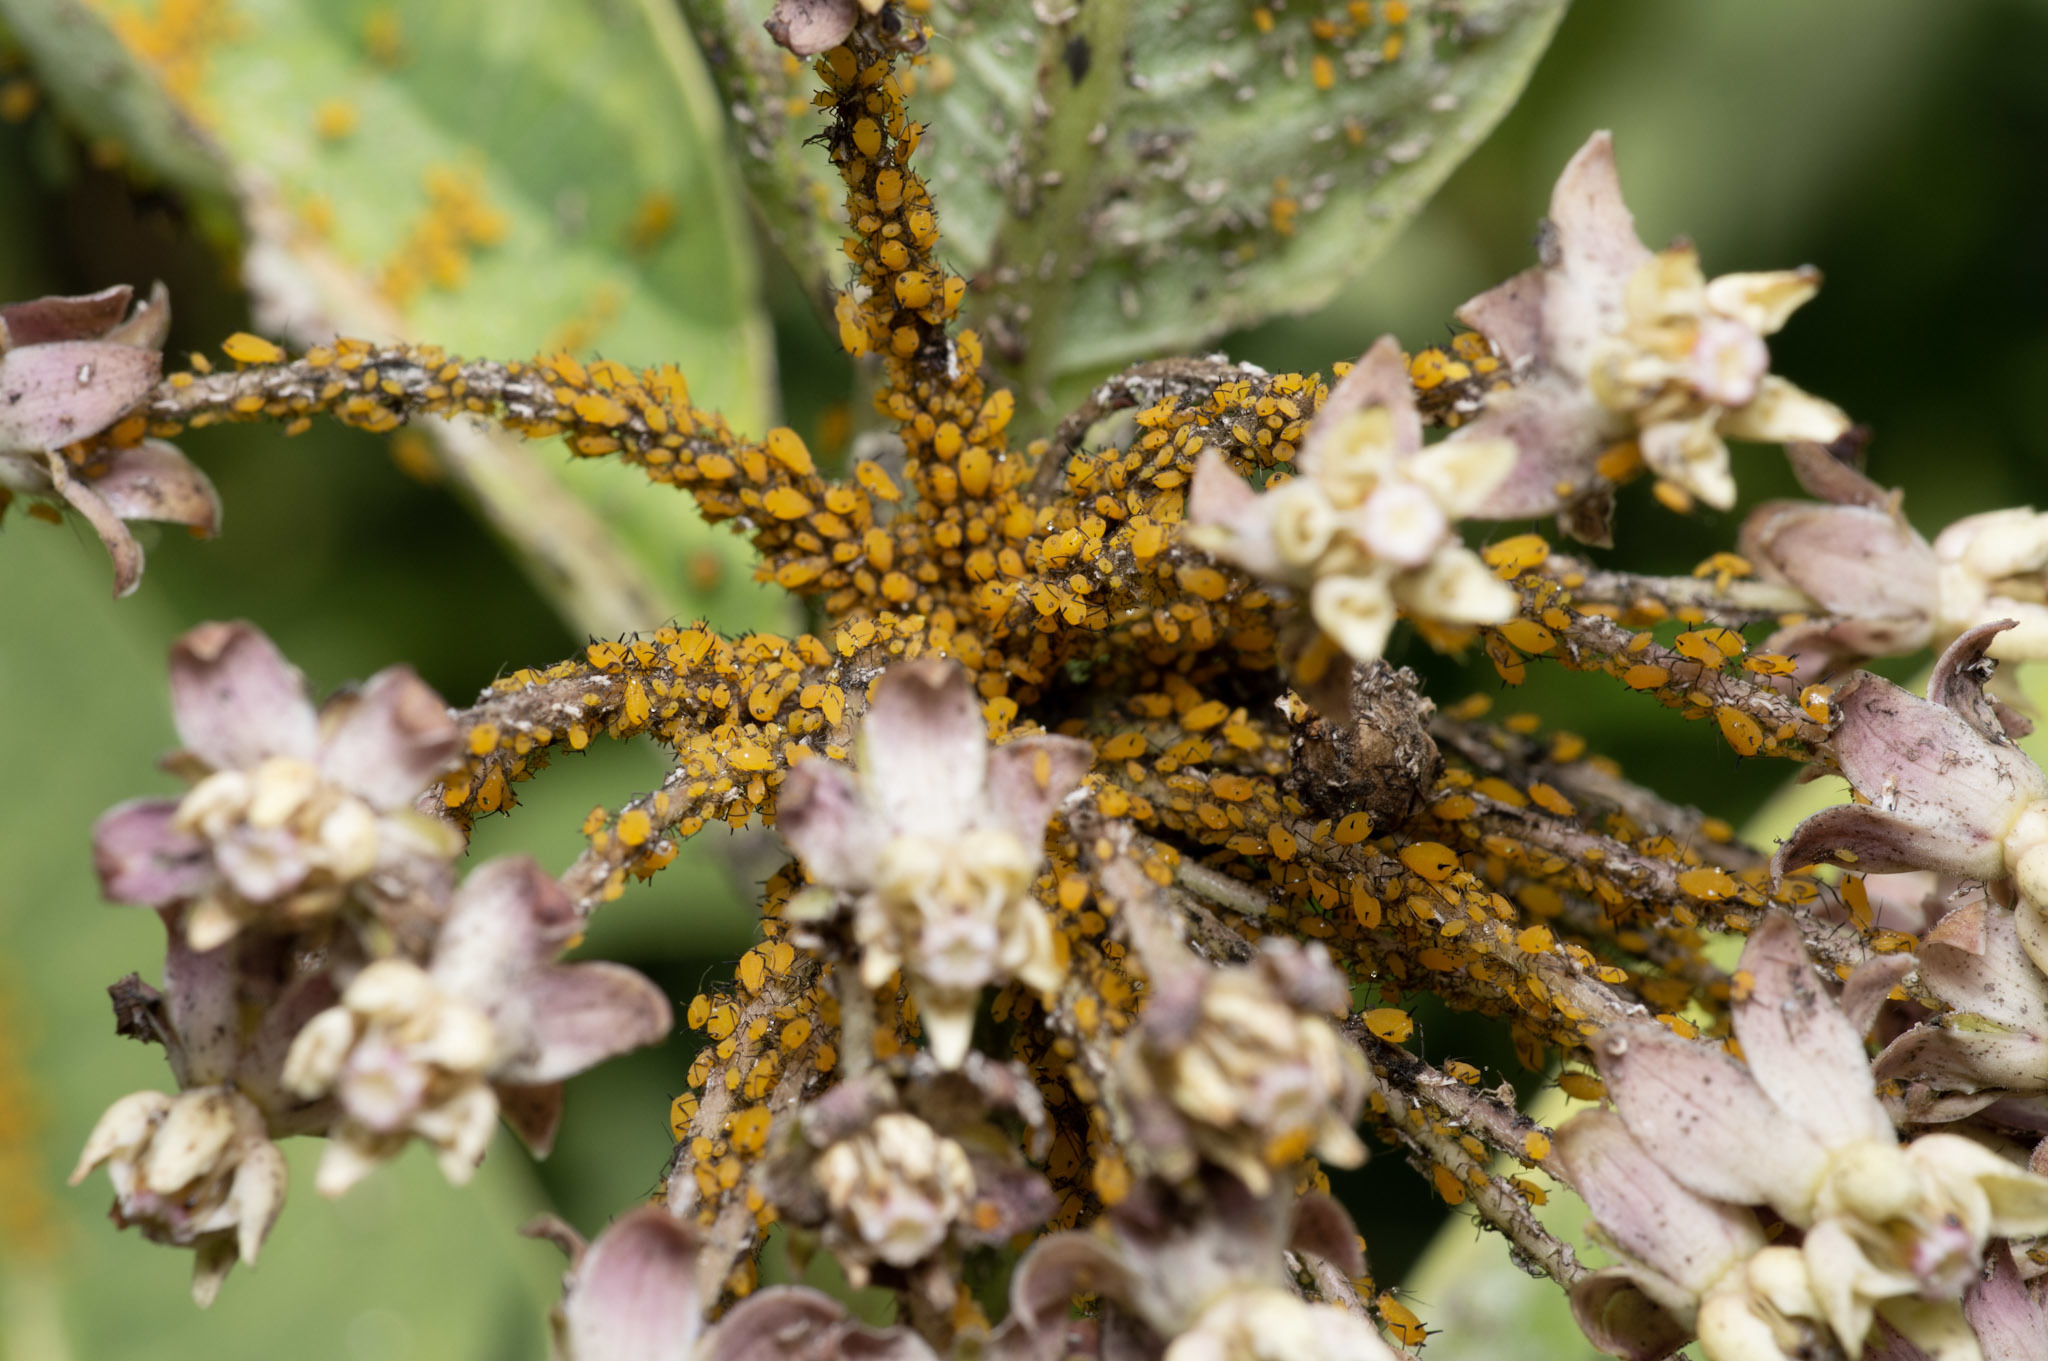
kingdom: Animalia
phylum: Arthropoda
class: Insecta
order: Hemiptera
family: Aphididae
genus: Aphis
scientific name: Aphis nerii
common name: Oleander aphid
